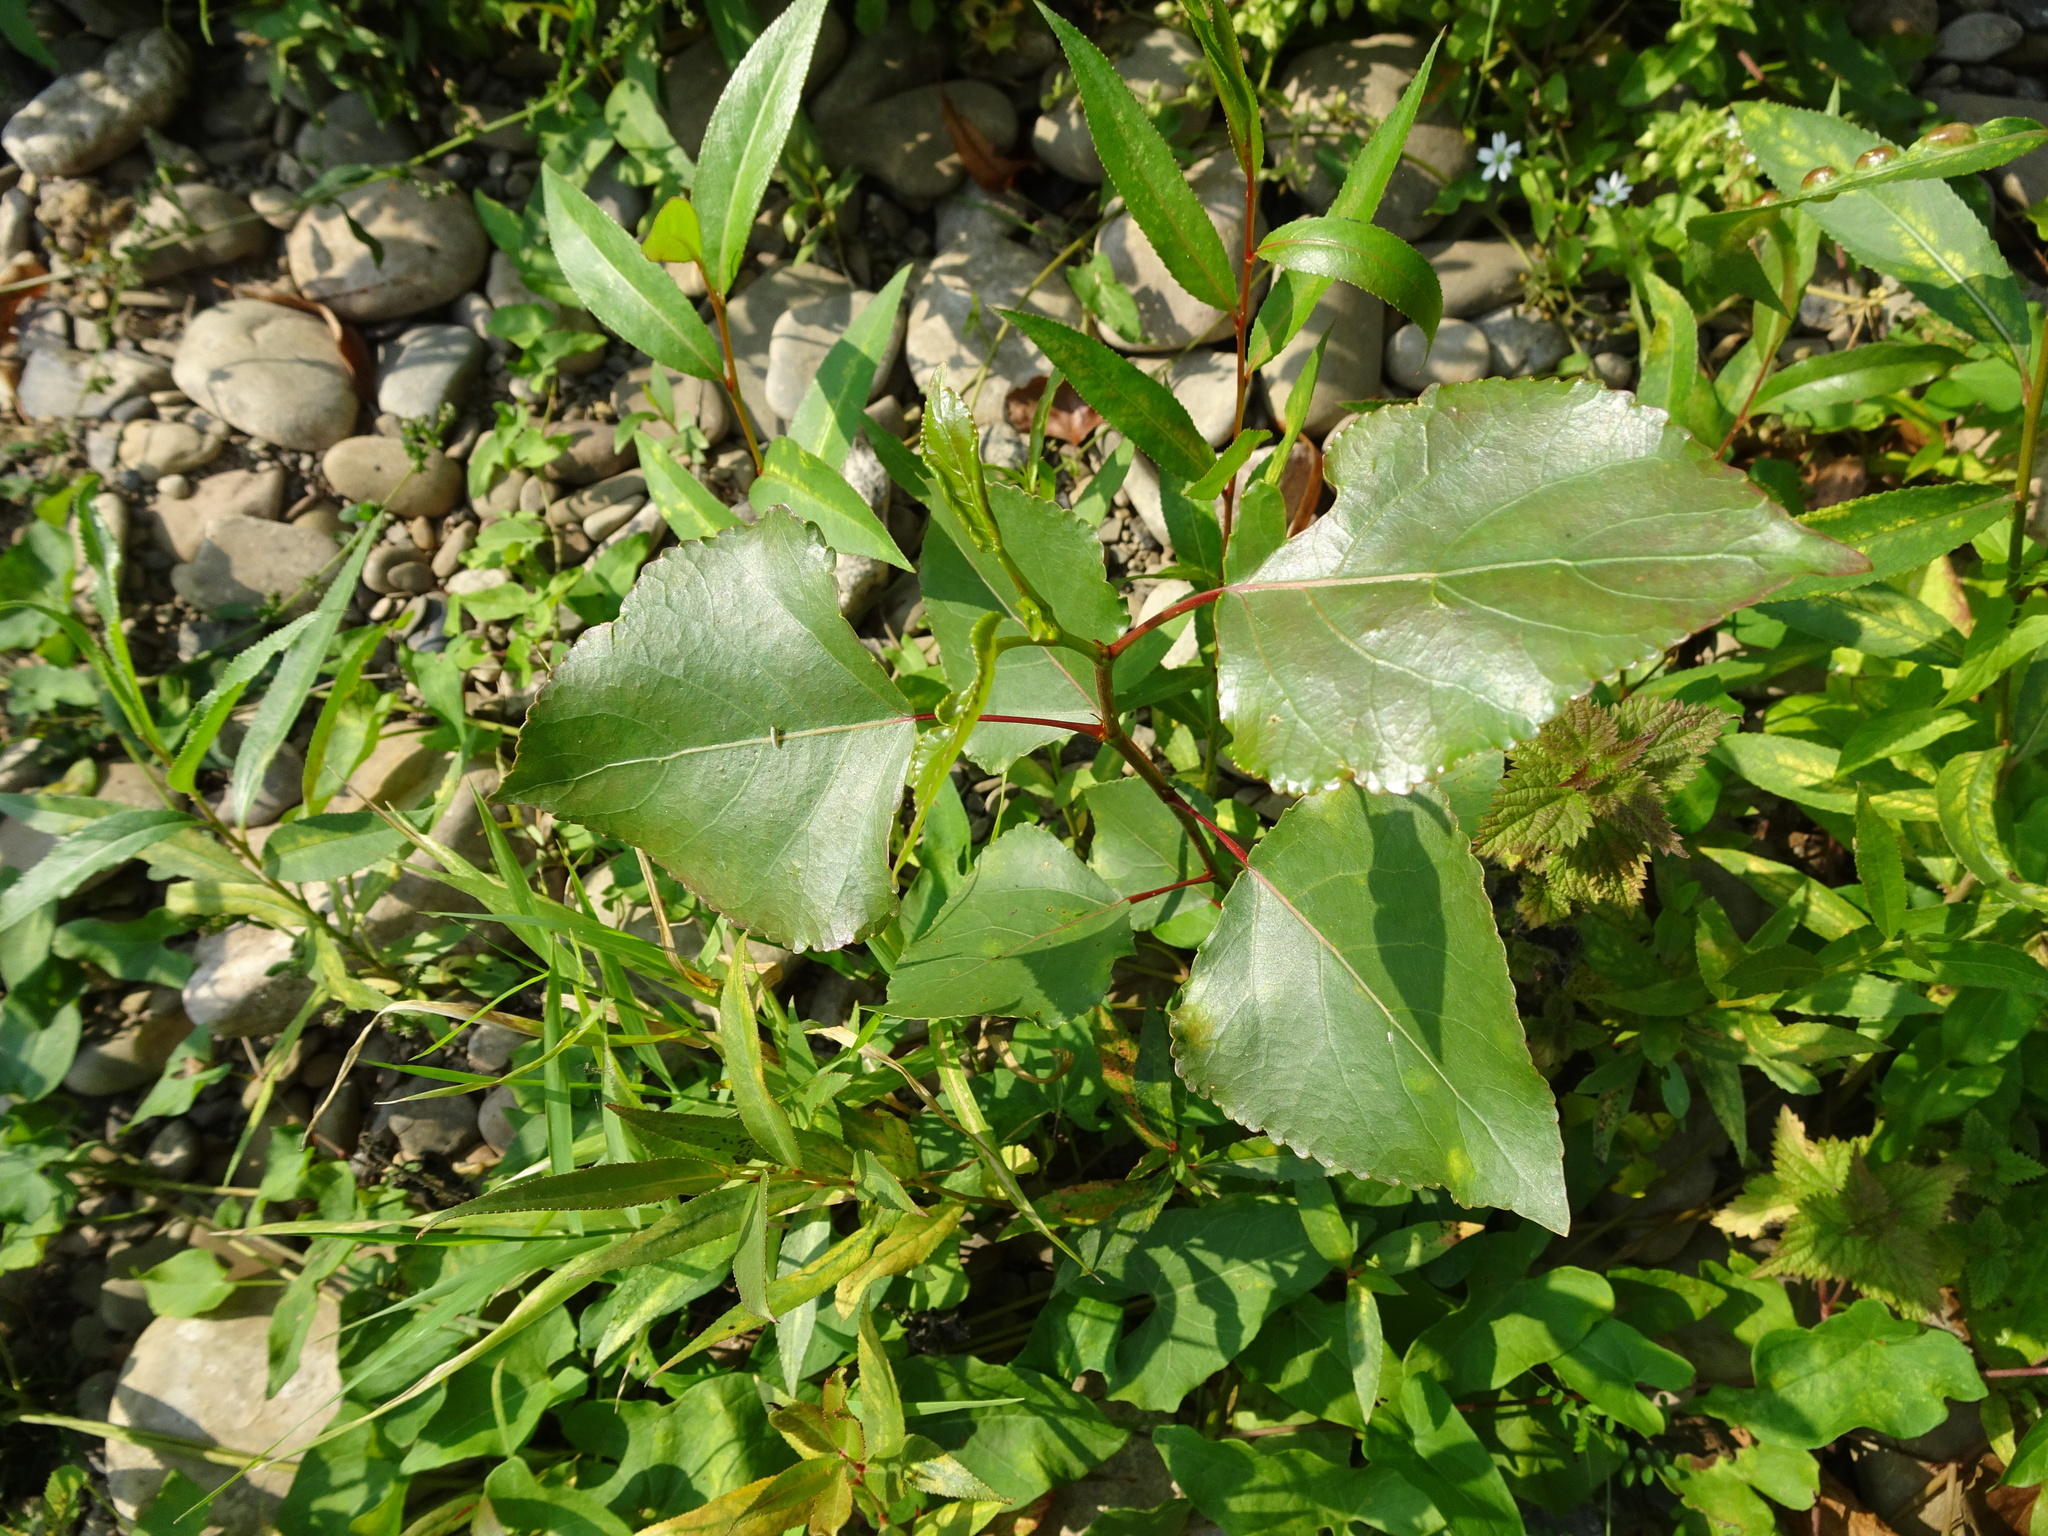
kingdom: Plantae
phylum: Tracheophyta
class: Magnoliopsida
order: Malpighiales
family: Salicaceae
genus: Populus
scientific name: Populus nigra
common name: Black poplar
